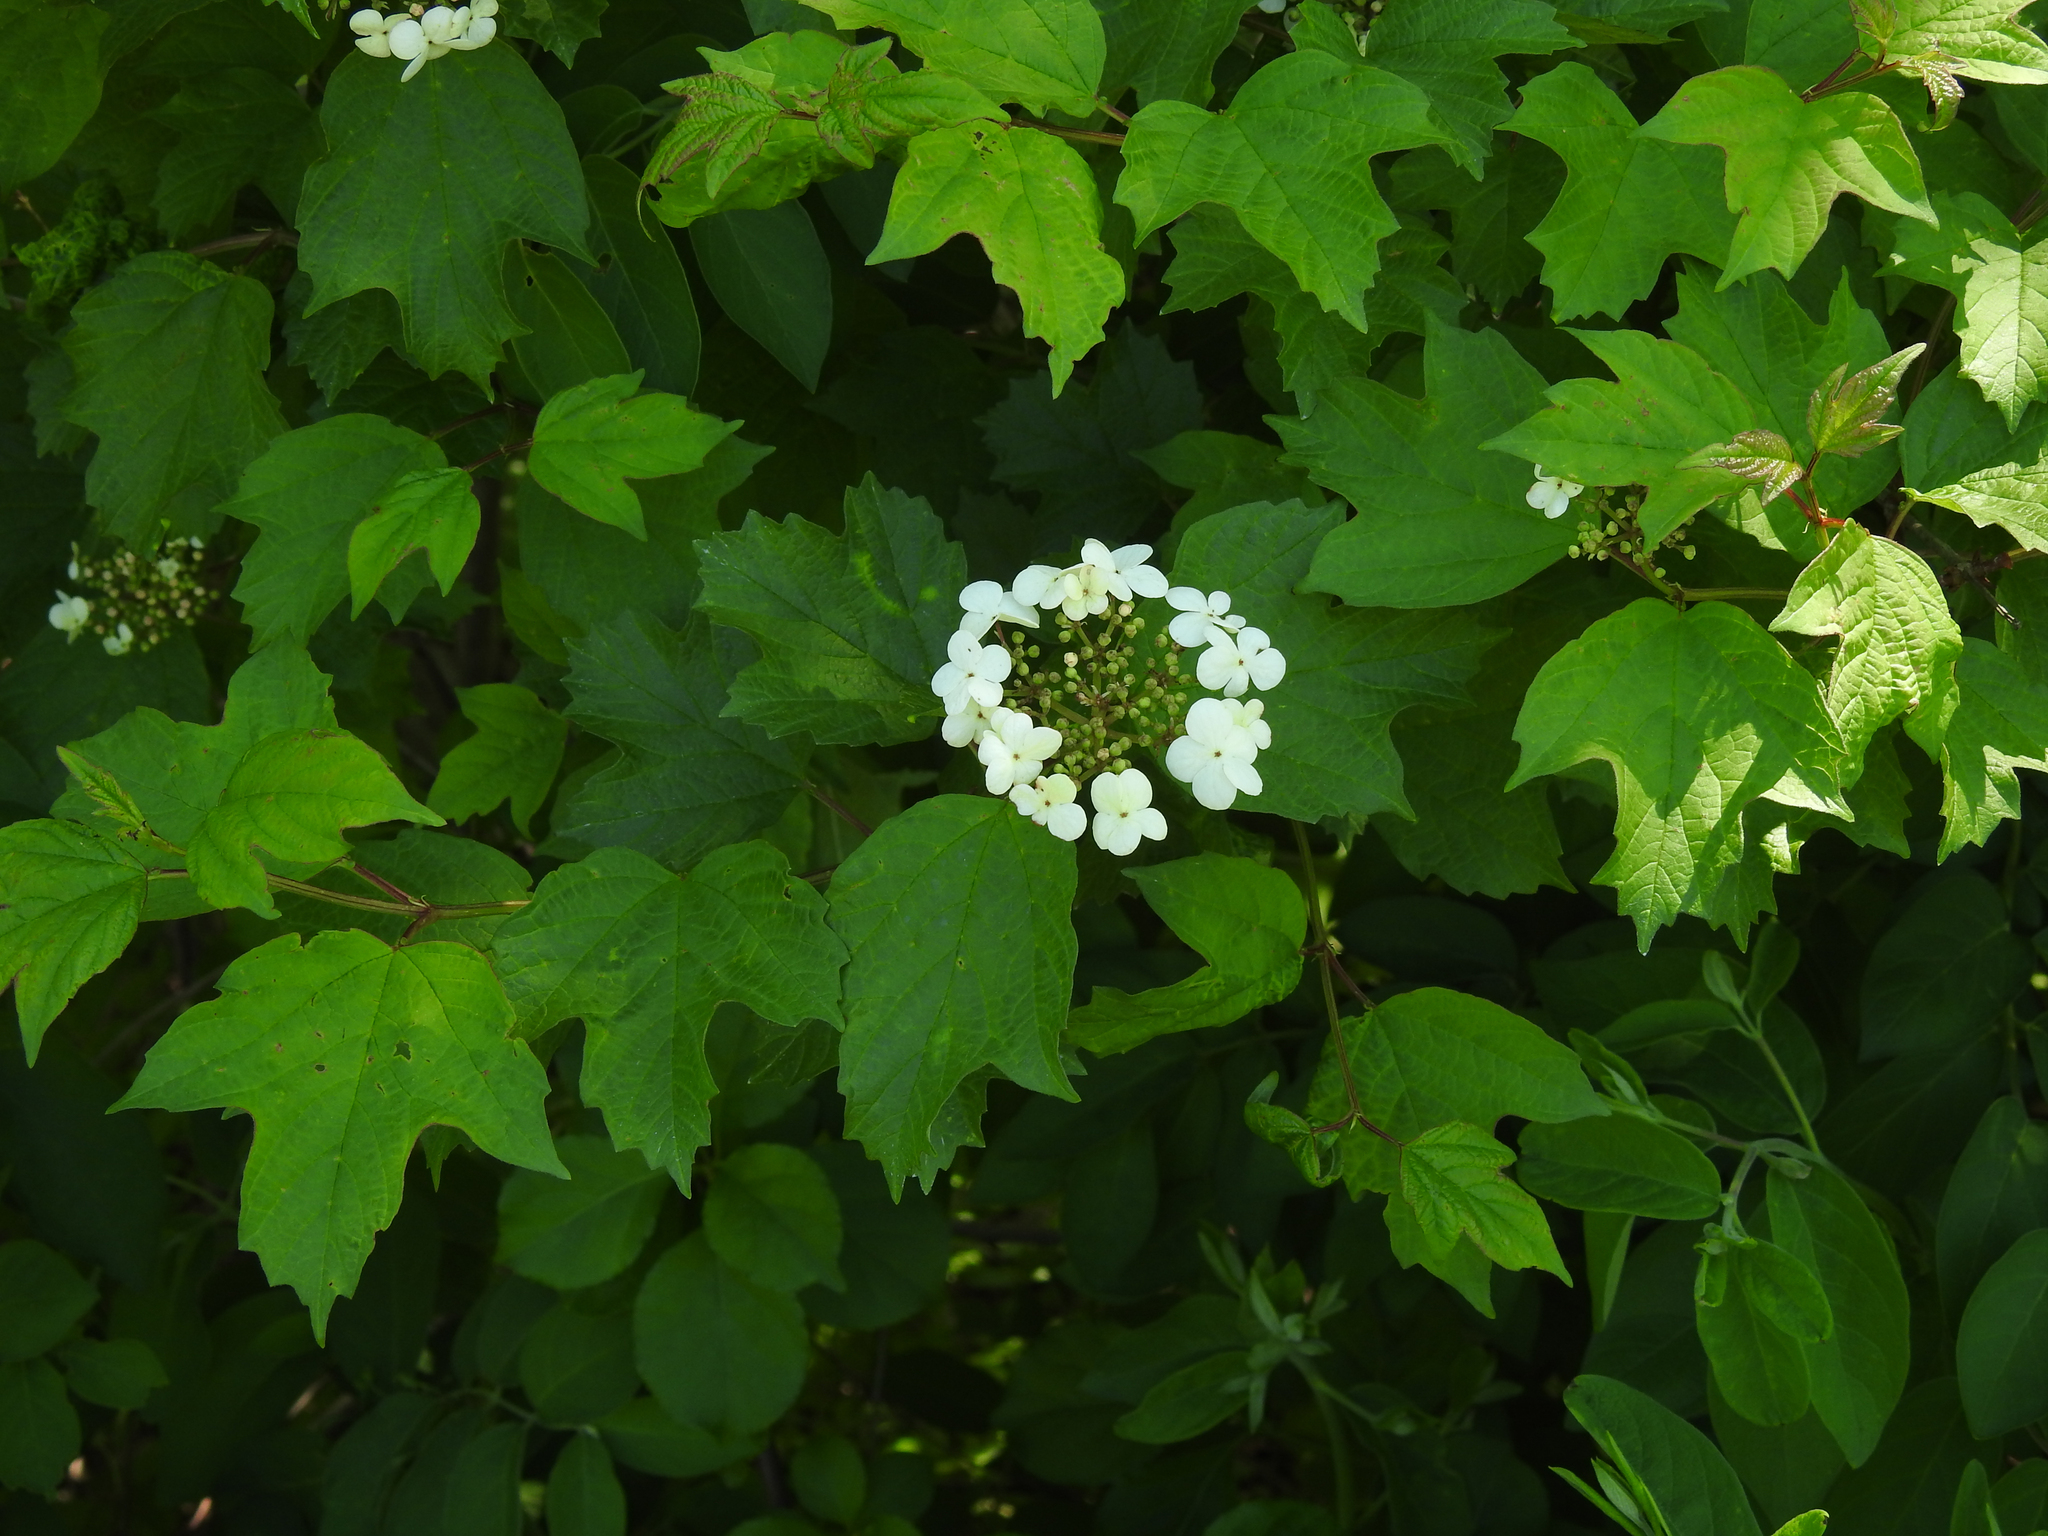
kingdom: Plantae
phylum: Tracheophyta
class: Magnoliopsida
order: Dipsacales
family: Viburnaceae
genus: Viburnum
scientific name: Viburnum opulus
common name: Guelder-rose
